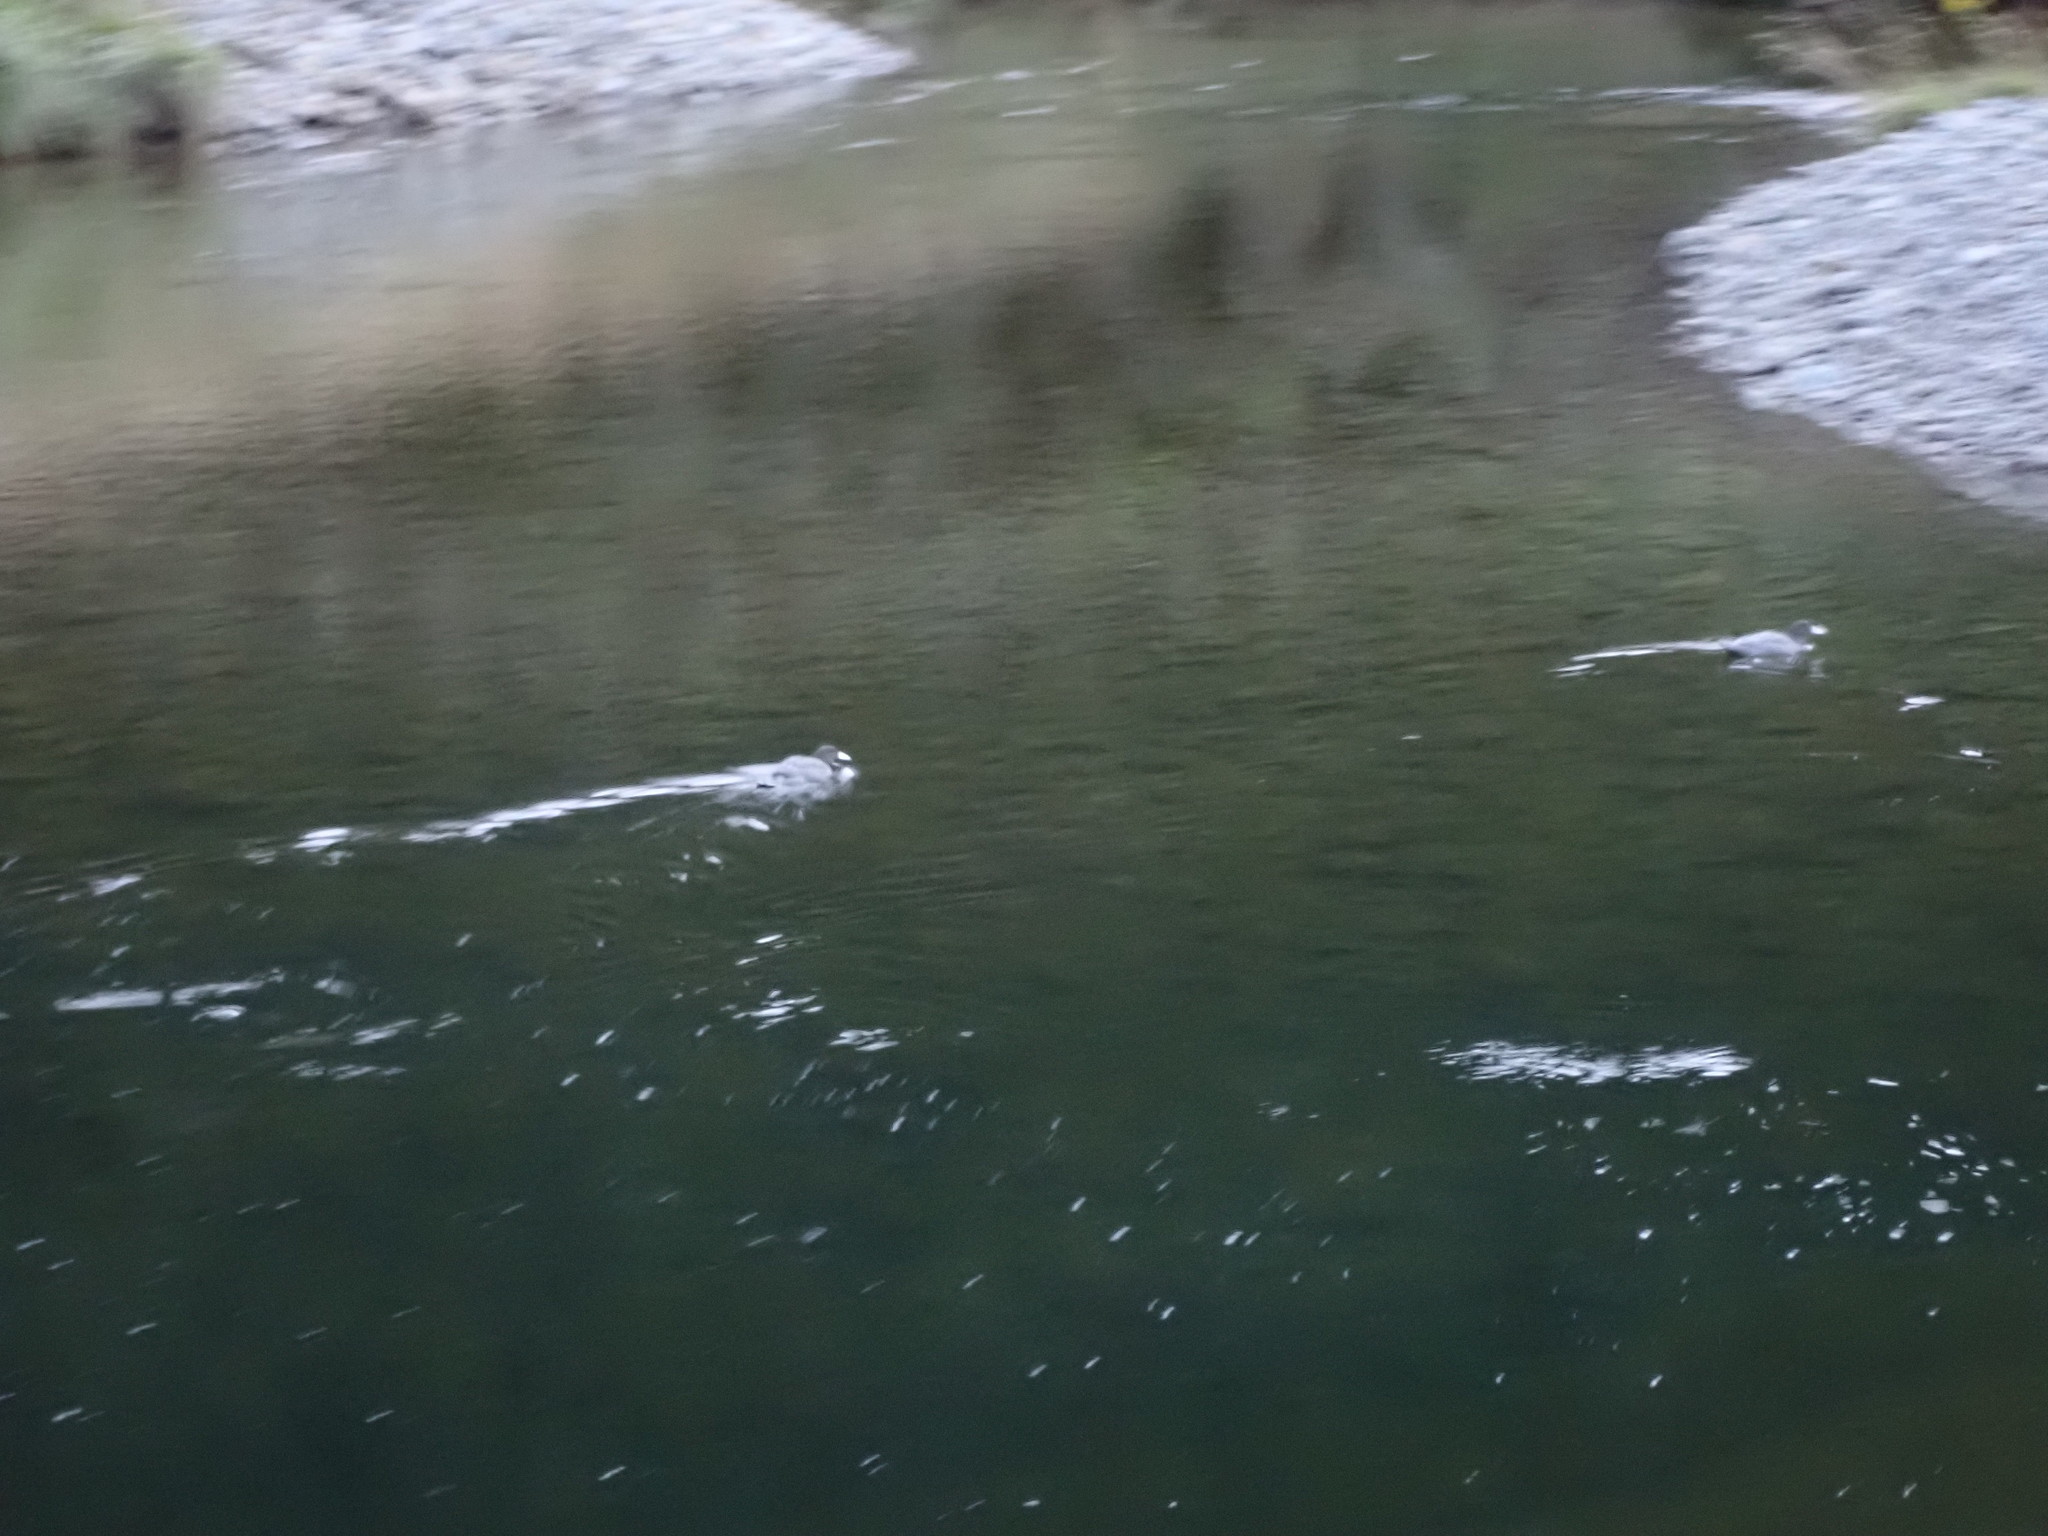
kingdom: Animalia
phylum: Chordata
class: Aves
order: Anseriformes
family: Anatidae
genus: Hymenolaimus
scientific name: Hymenolaimus malacorhynchos
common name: Blue duck
